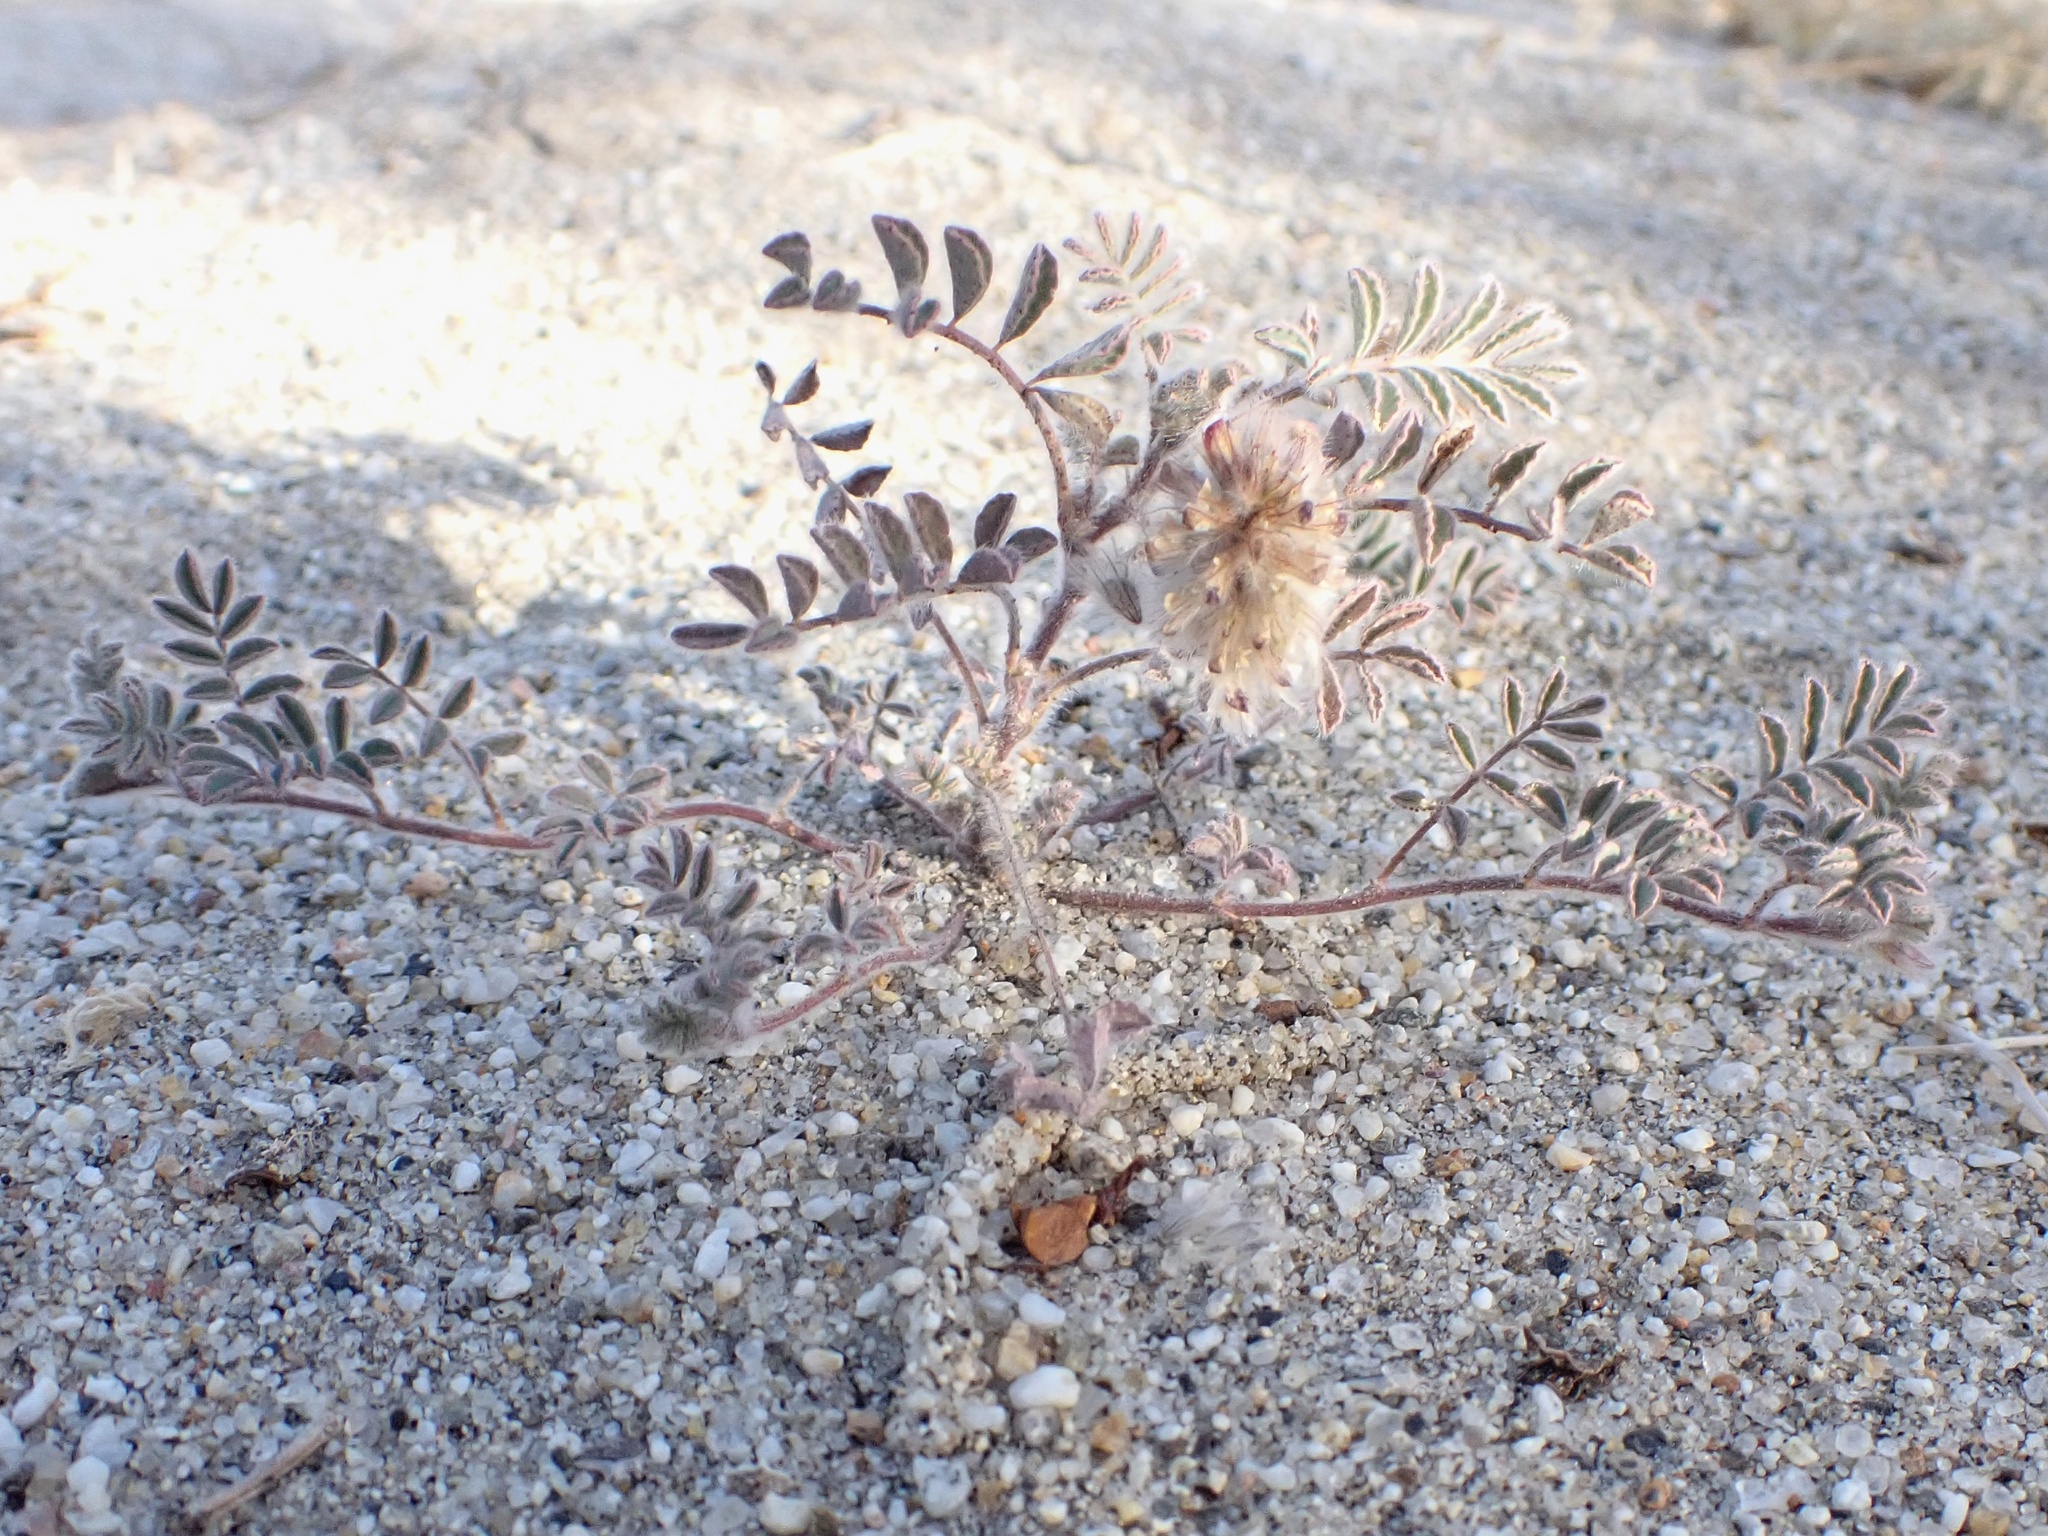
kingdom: Plantae
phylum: Tracheophyta
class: Magnoliopsida
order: Fabales
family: Fabaceae
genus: Dalea
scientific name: Dalea mollis
